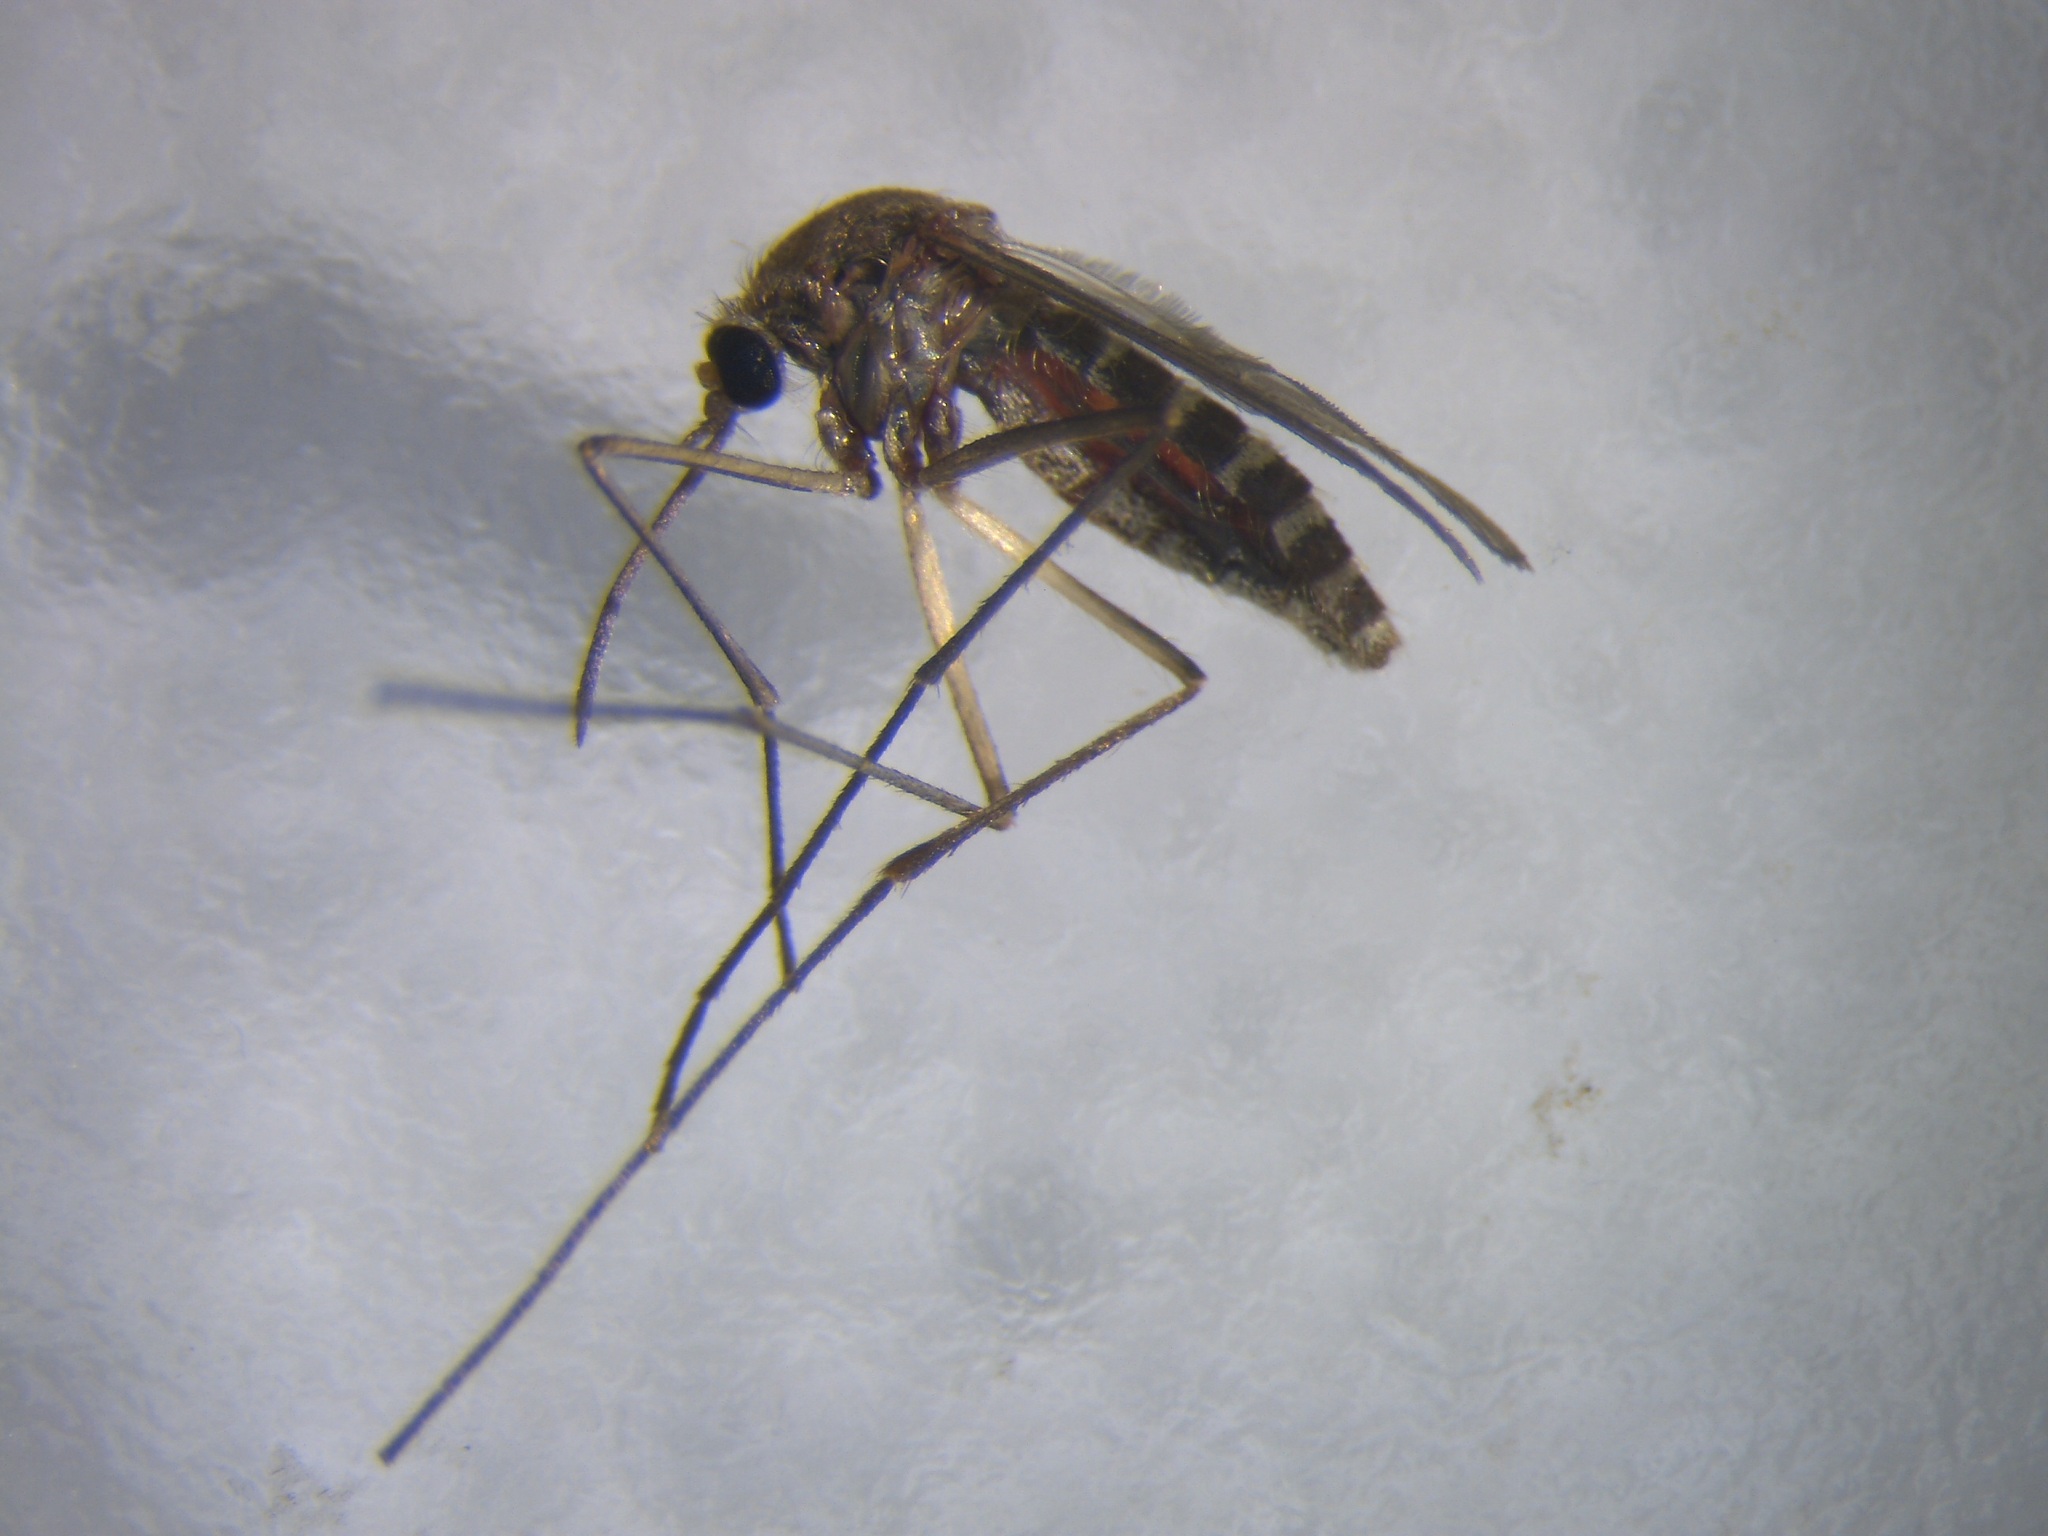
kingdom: Animalia
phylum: Arthropoda
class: Insecta
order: Diptera
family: Culicidae
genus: Culex
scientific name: Culex quinquefasciatus
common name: Southern house mosquito
